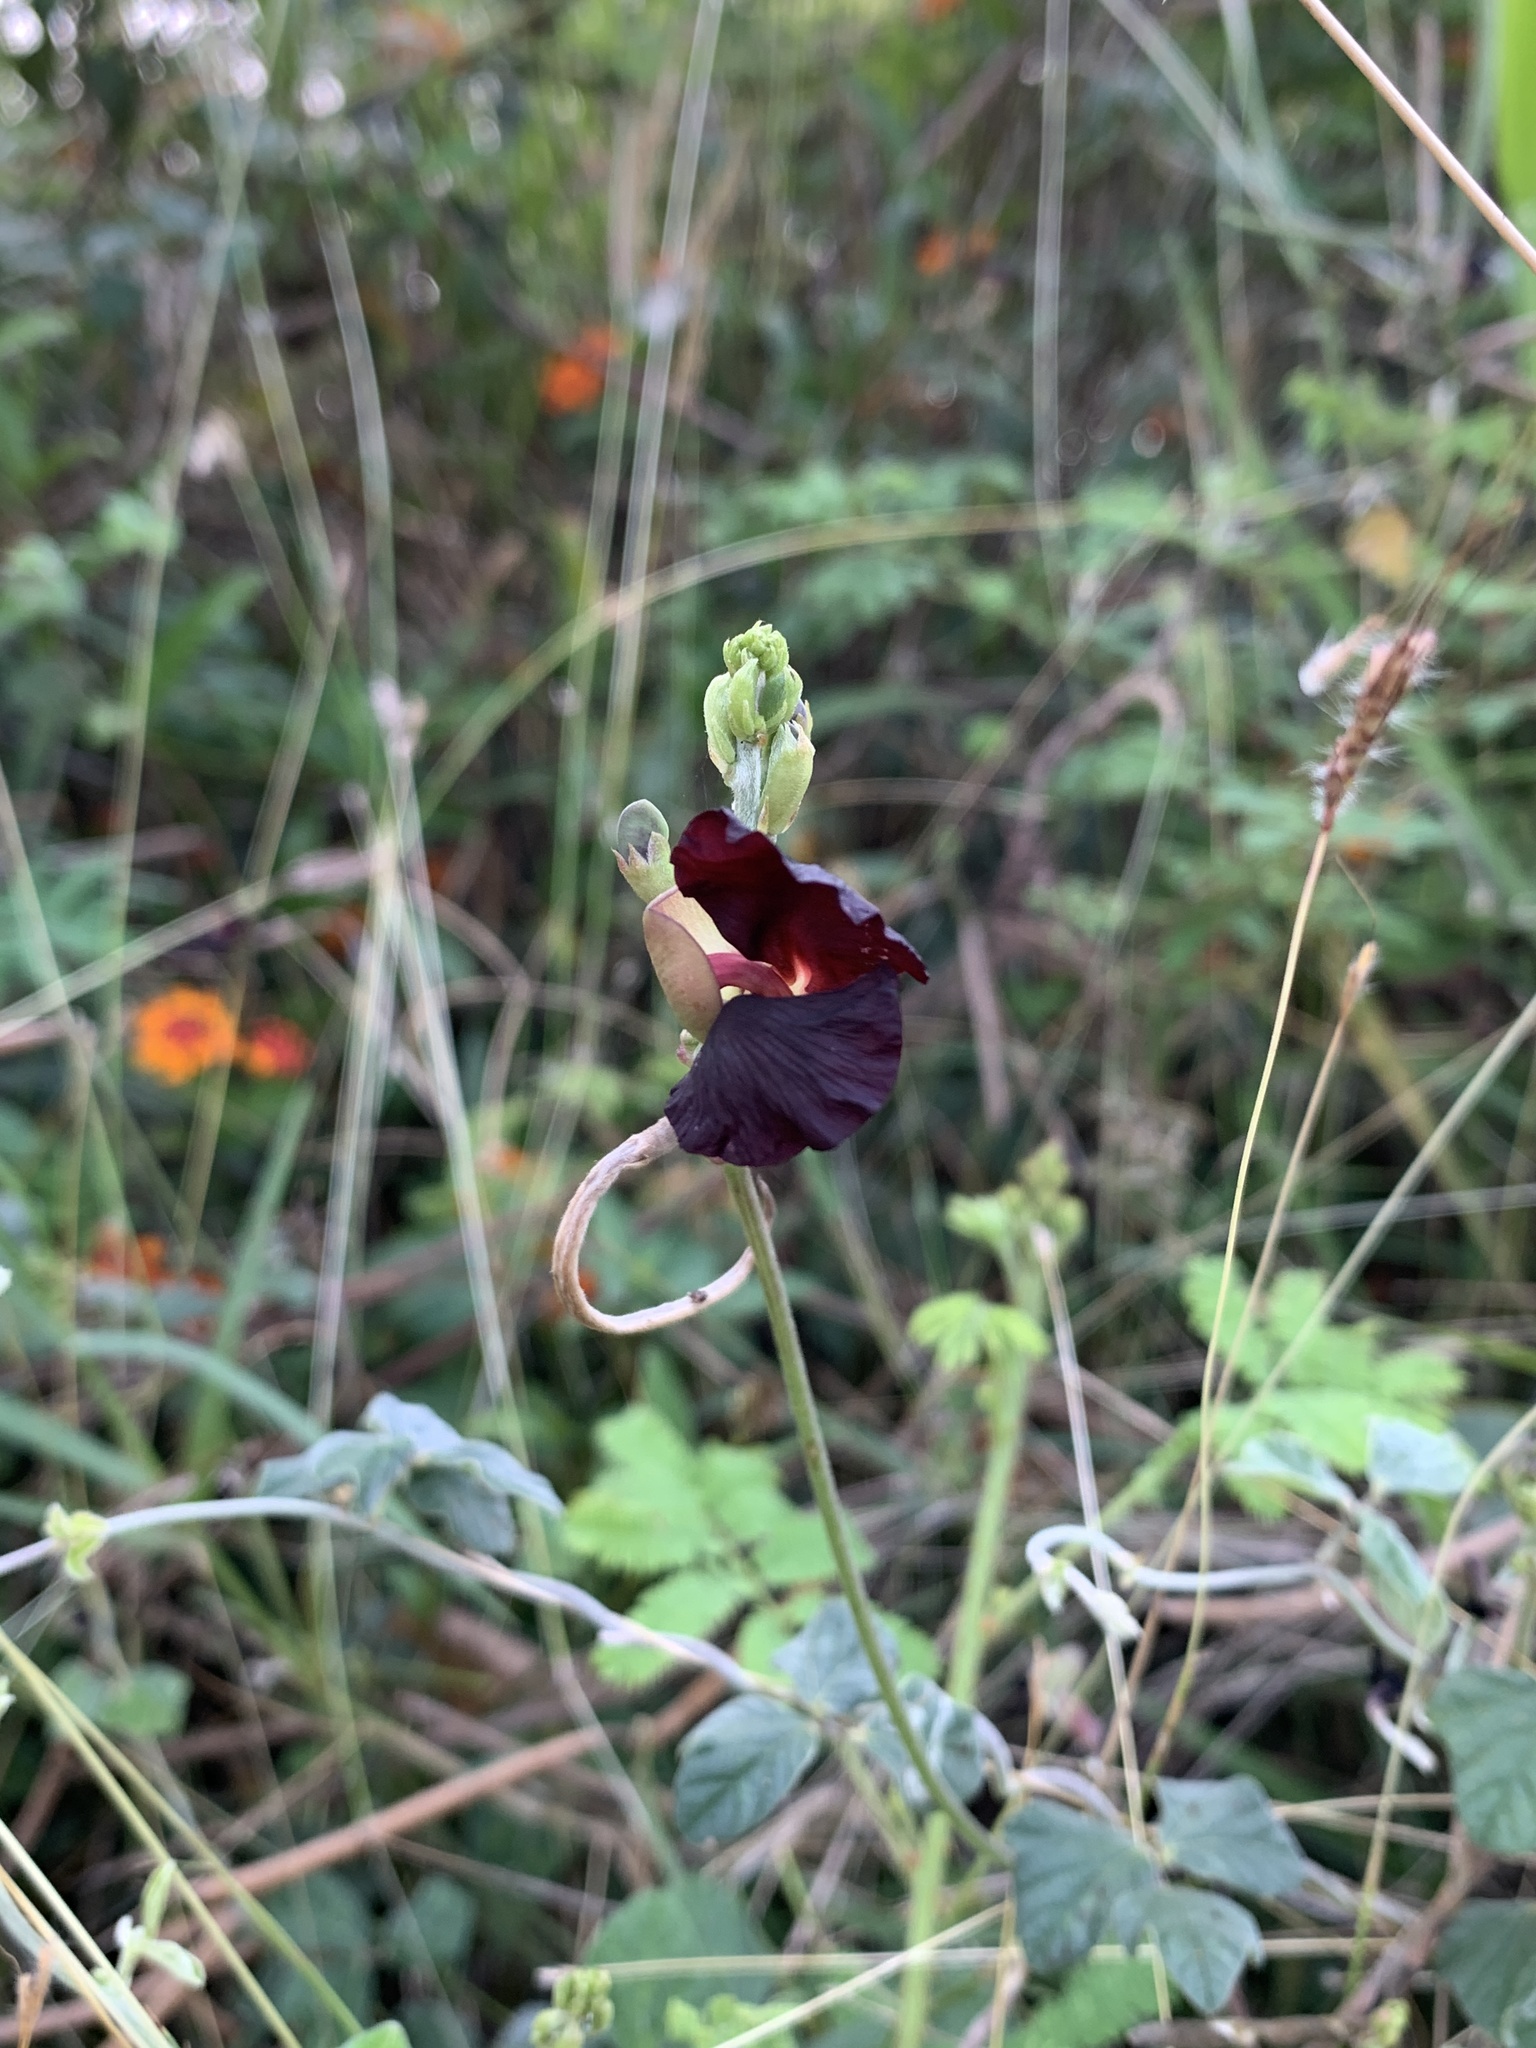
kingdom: Plantae
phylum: Tracheophyta
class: Magnoliopsida
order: Fabales
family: Fabaceae
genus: Macroptilium
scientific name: Macroptilium atropurpureum
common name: Purple bushbean
